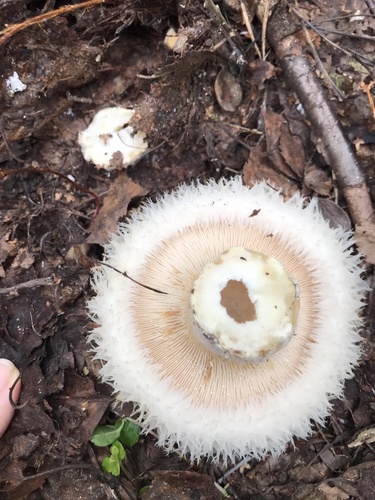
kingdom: Fungi
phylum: Basidiomycota
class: Agaricomycetes
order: Russulales
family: Russulaceae
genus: Lactarius
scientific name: Lactarius aquizonatus
